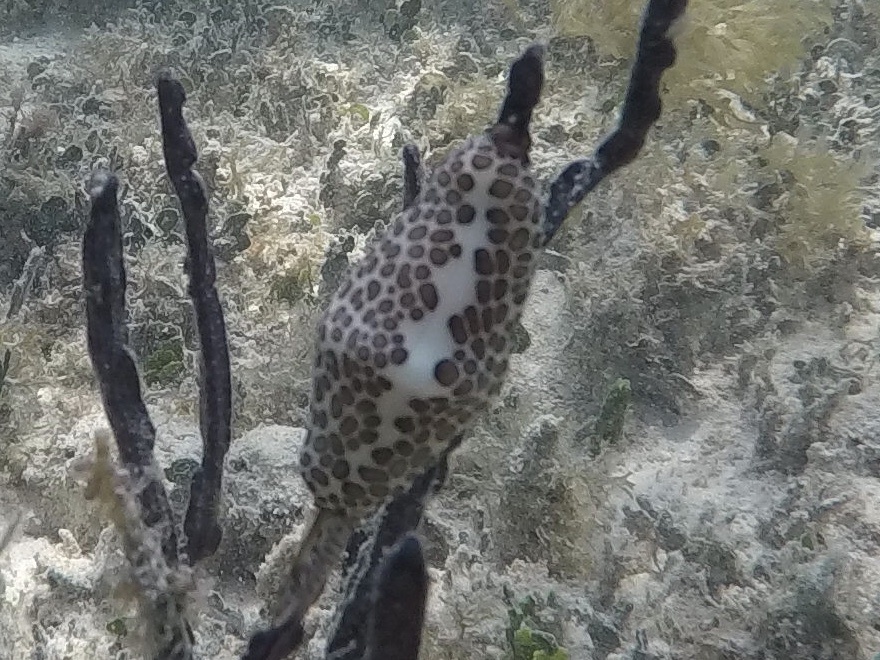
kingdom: Animalia
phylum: Mollusca
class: Gastropoda
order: Littorinimorpha
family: Ovulidae
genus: Cyphoma
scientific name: Cyphoma mcgintyi
